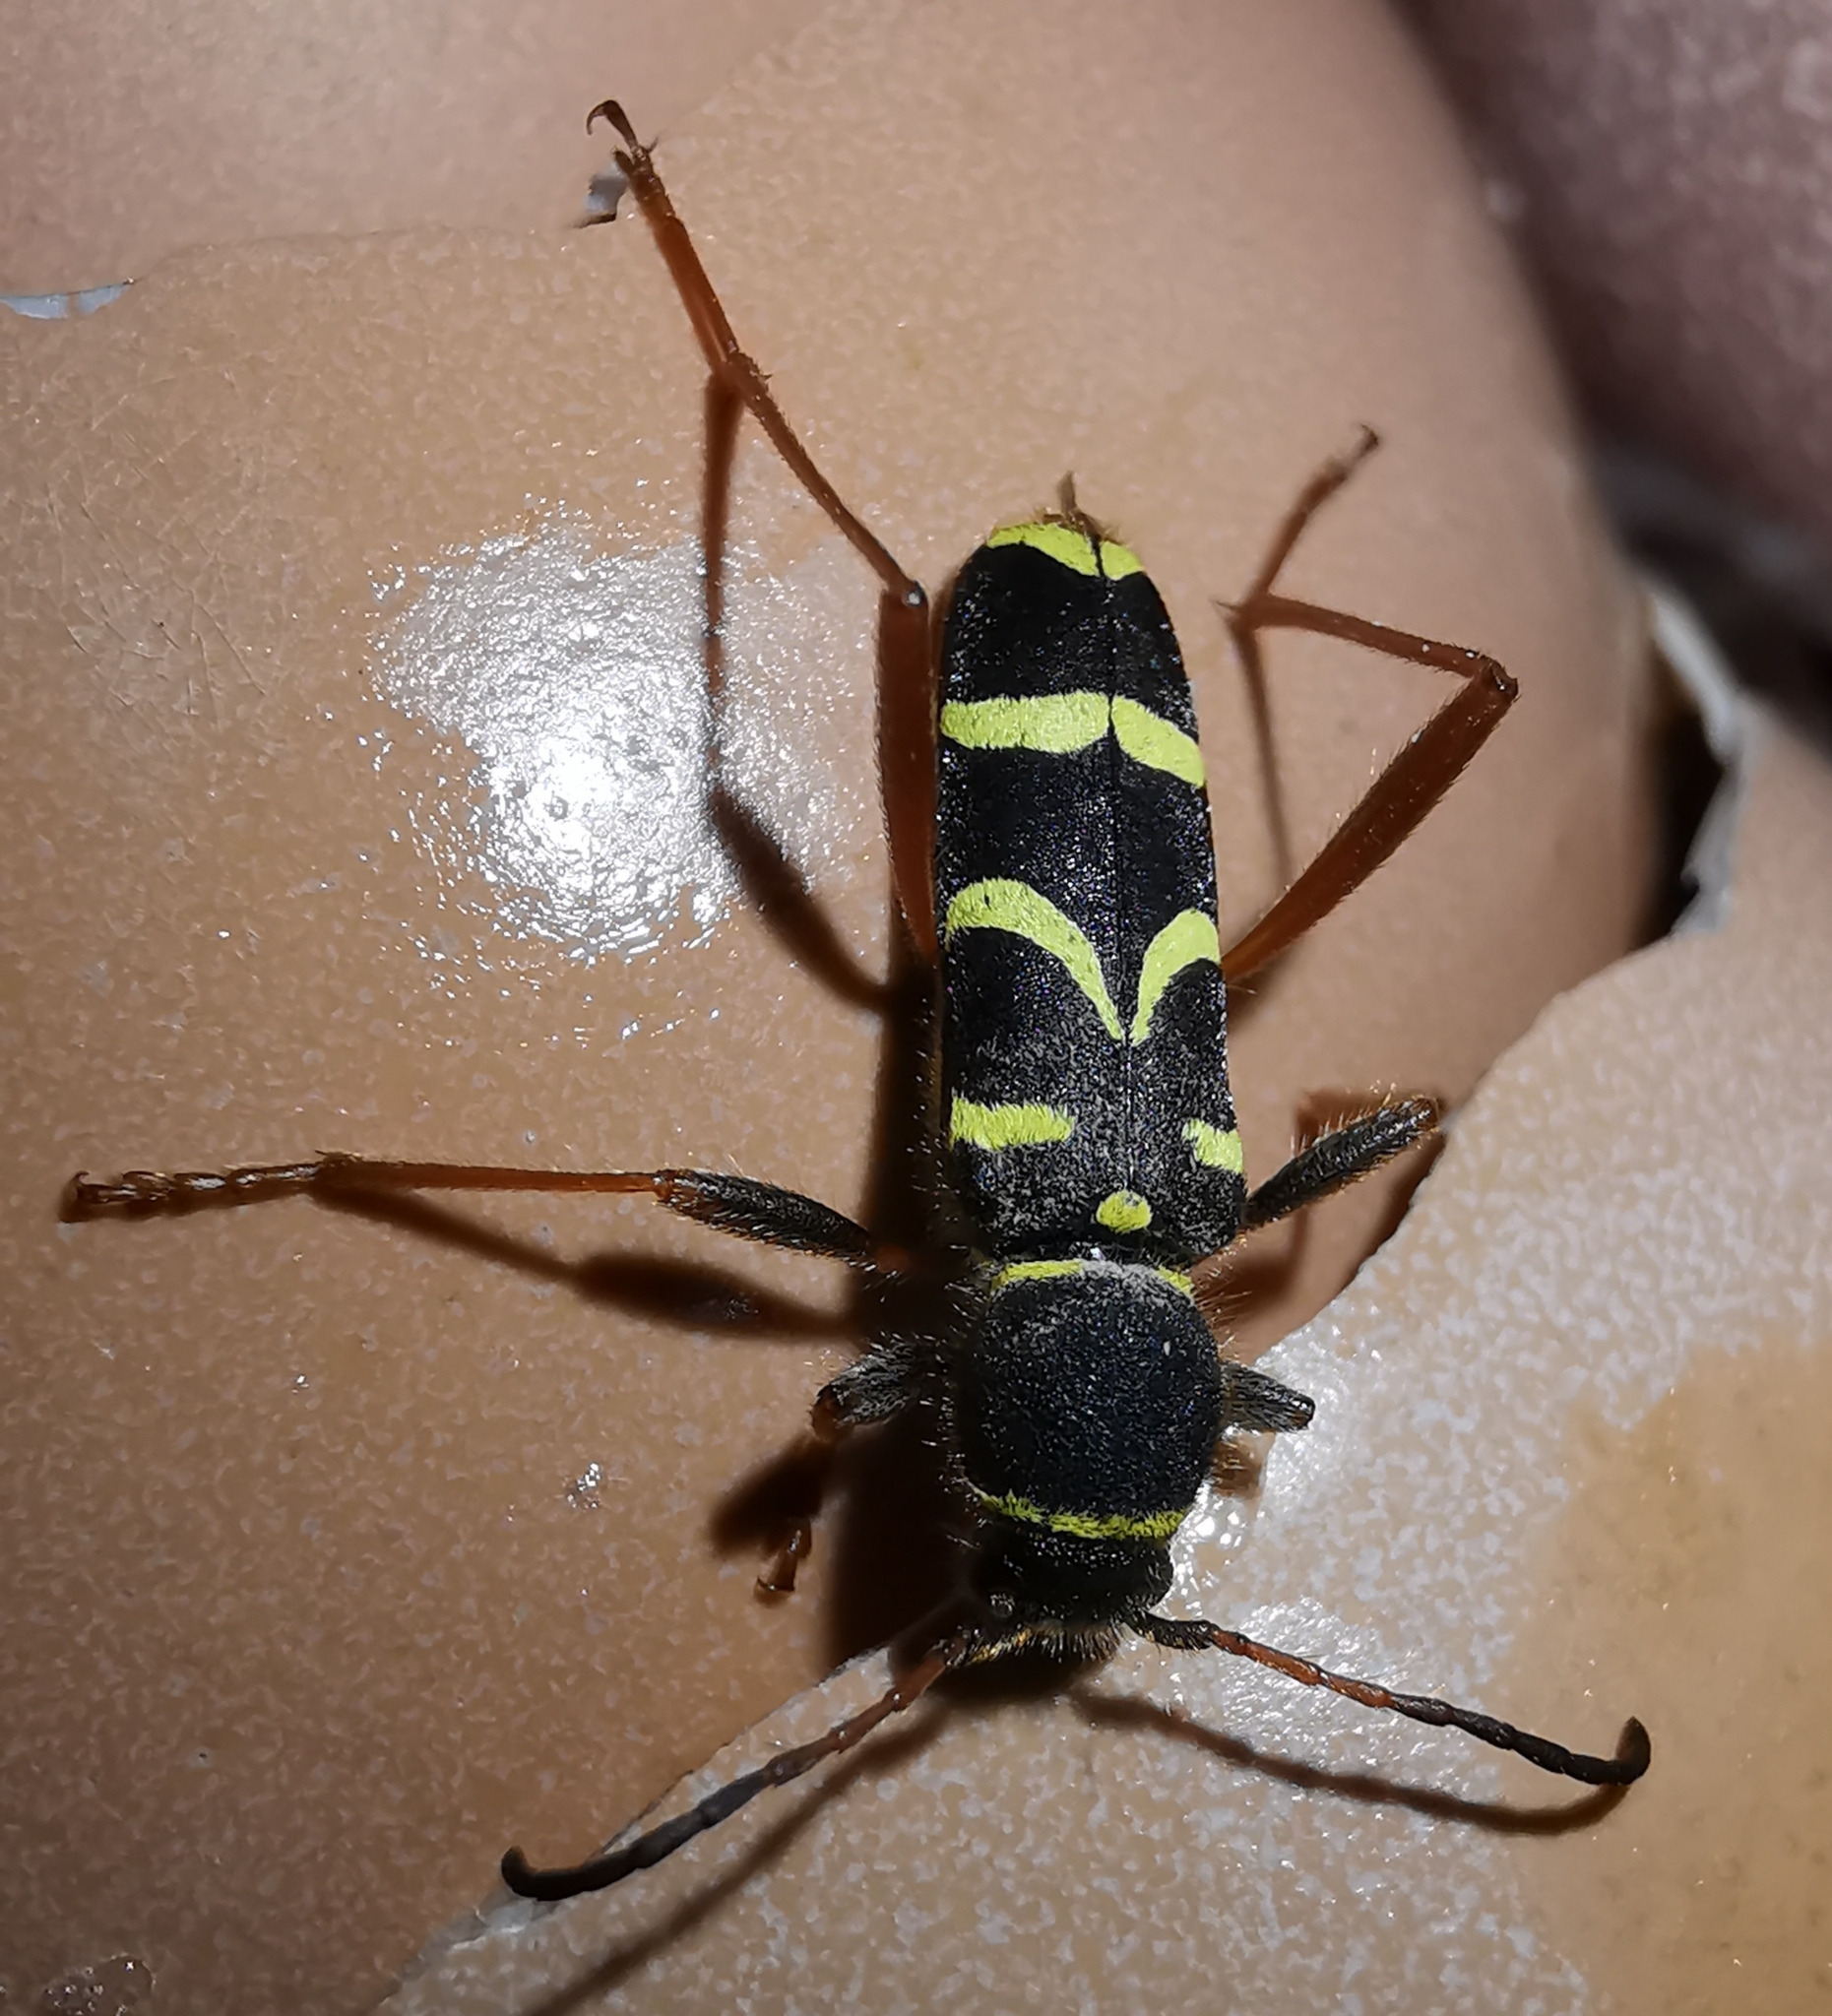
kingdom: Animalia
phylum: Arthropoda
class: Insecta
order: Coleoptera
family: Cerambycidae
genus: Clytus
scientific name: Clytus arietis
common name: Wasp beetle
